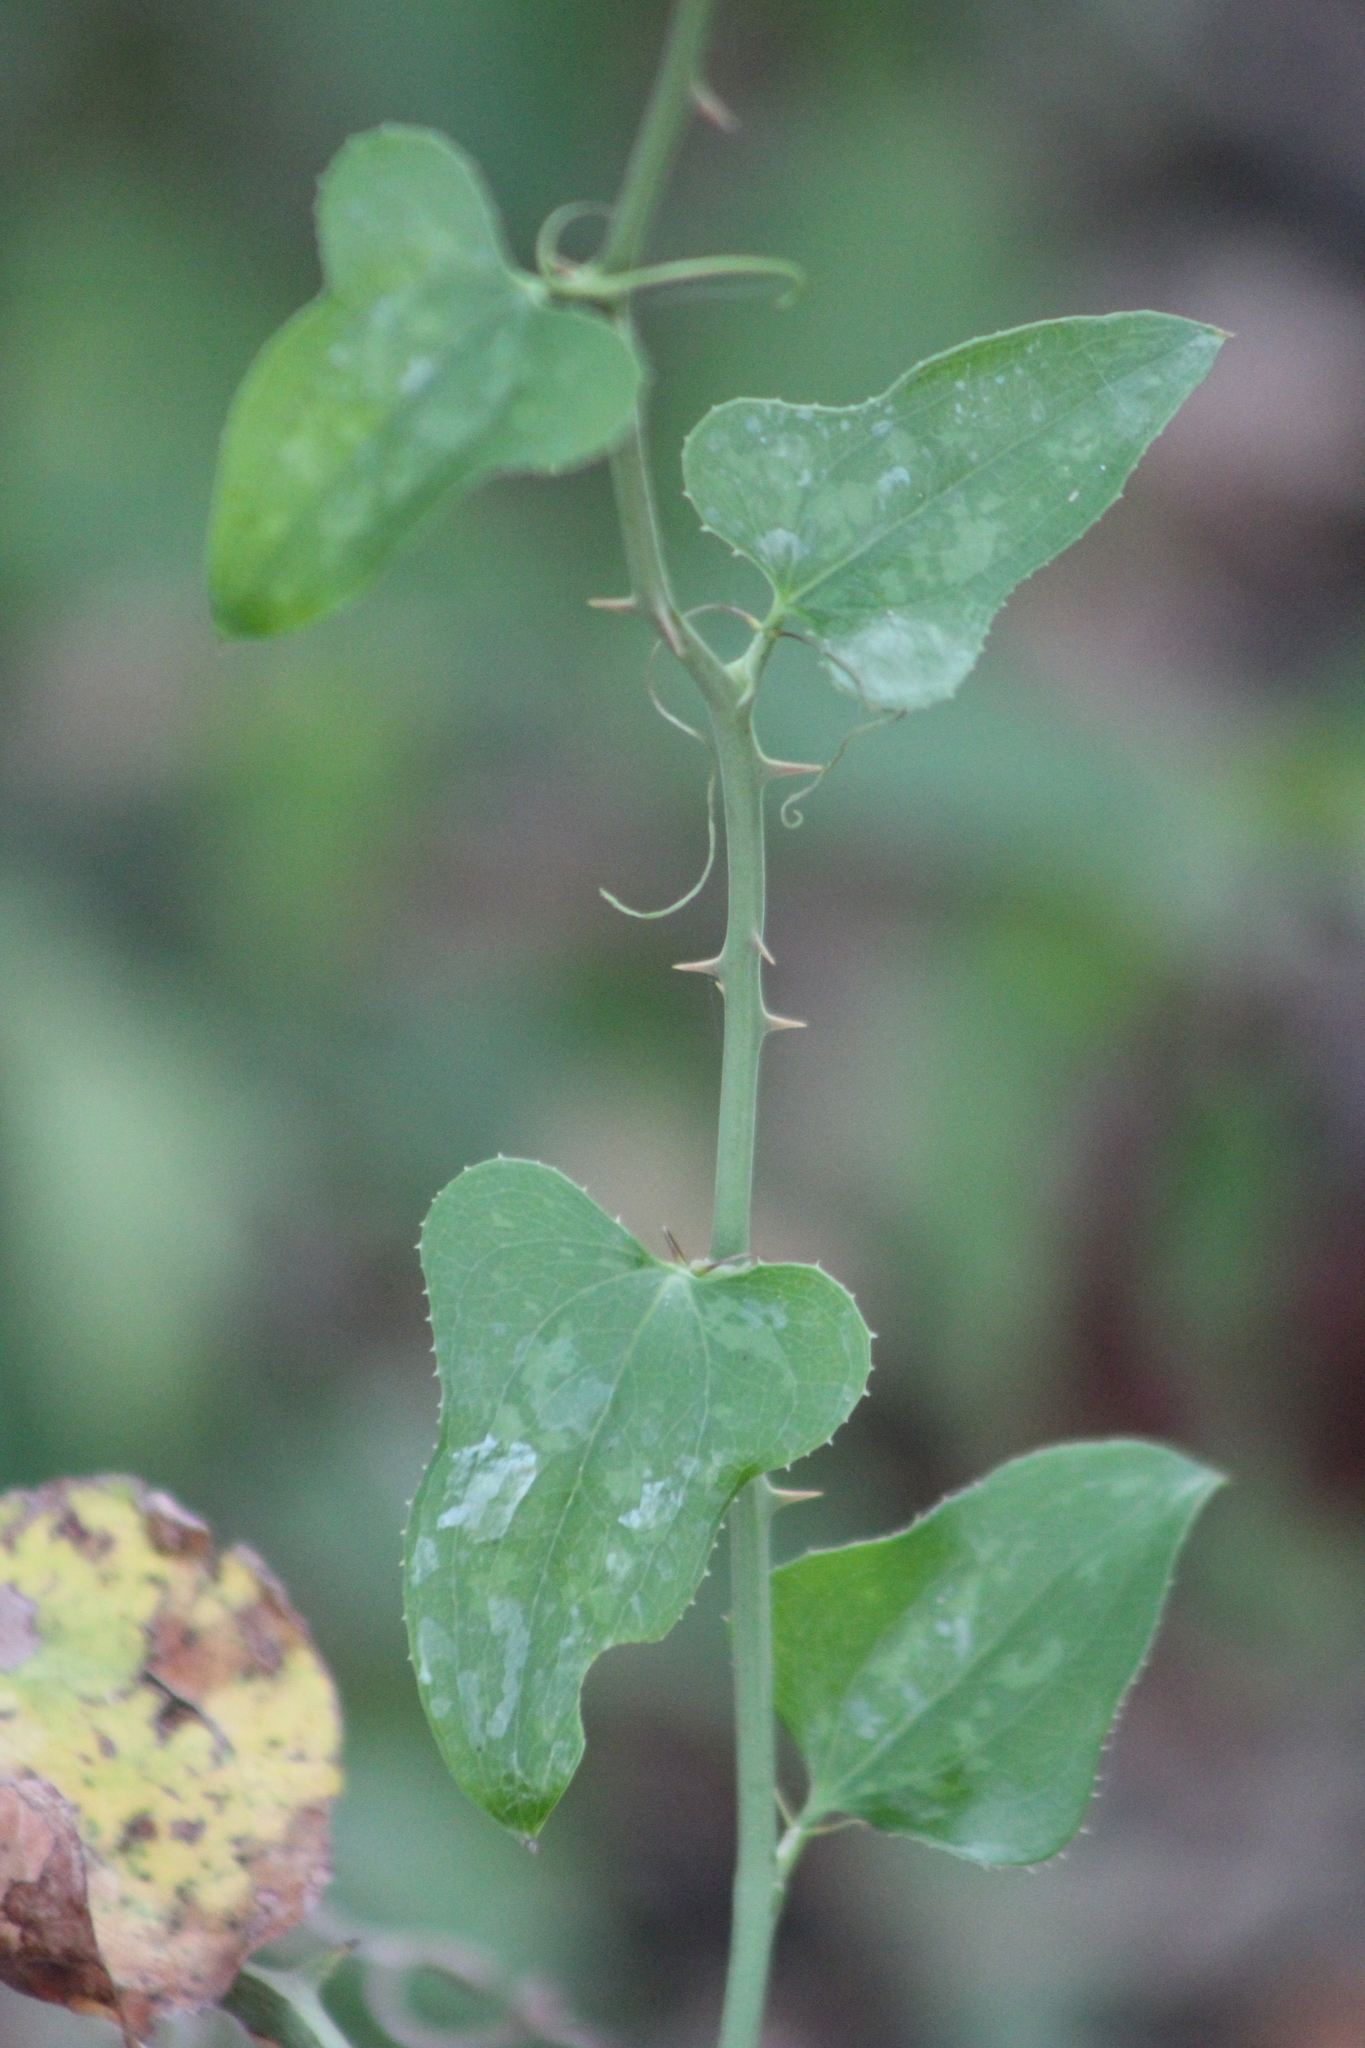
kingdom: Plantae
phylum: Tracheophyta
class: Liliopsida
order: Liliales
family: Smilacaceae
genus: Smilax
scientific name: Smilax bona-nox
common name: Catbrier
